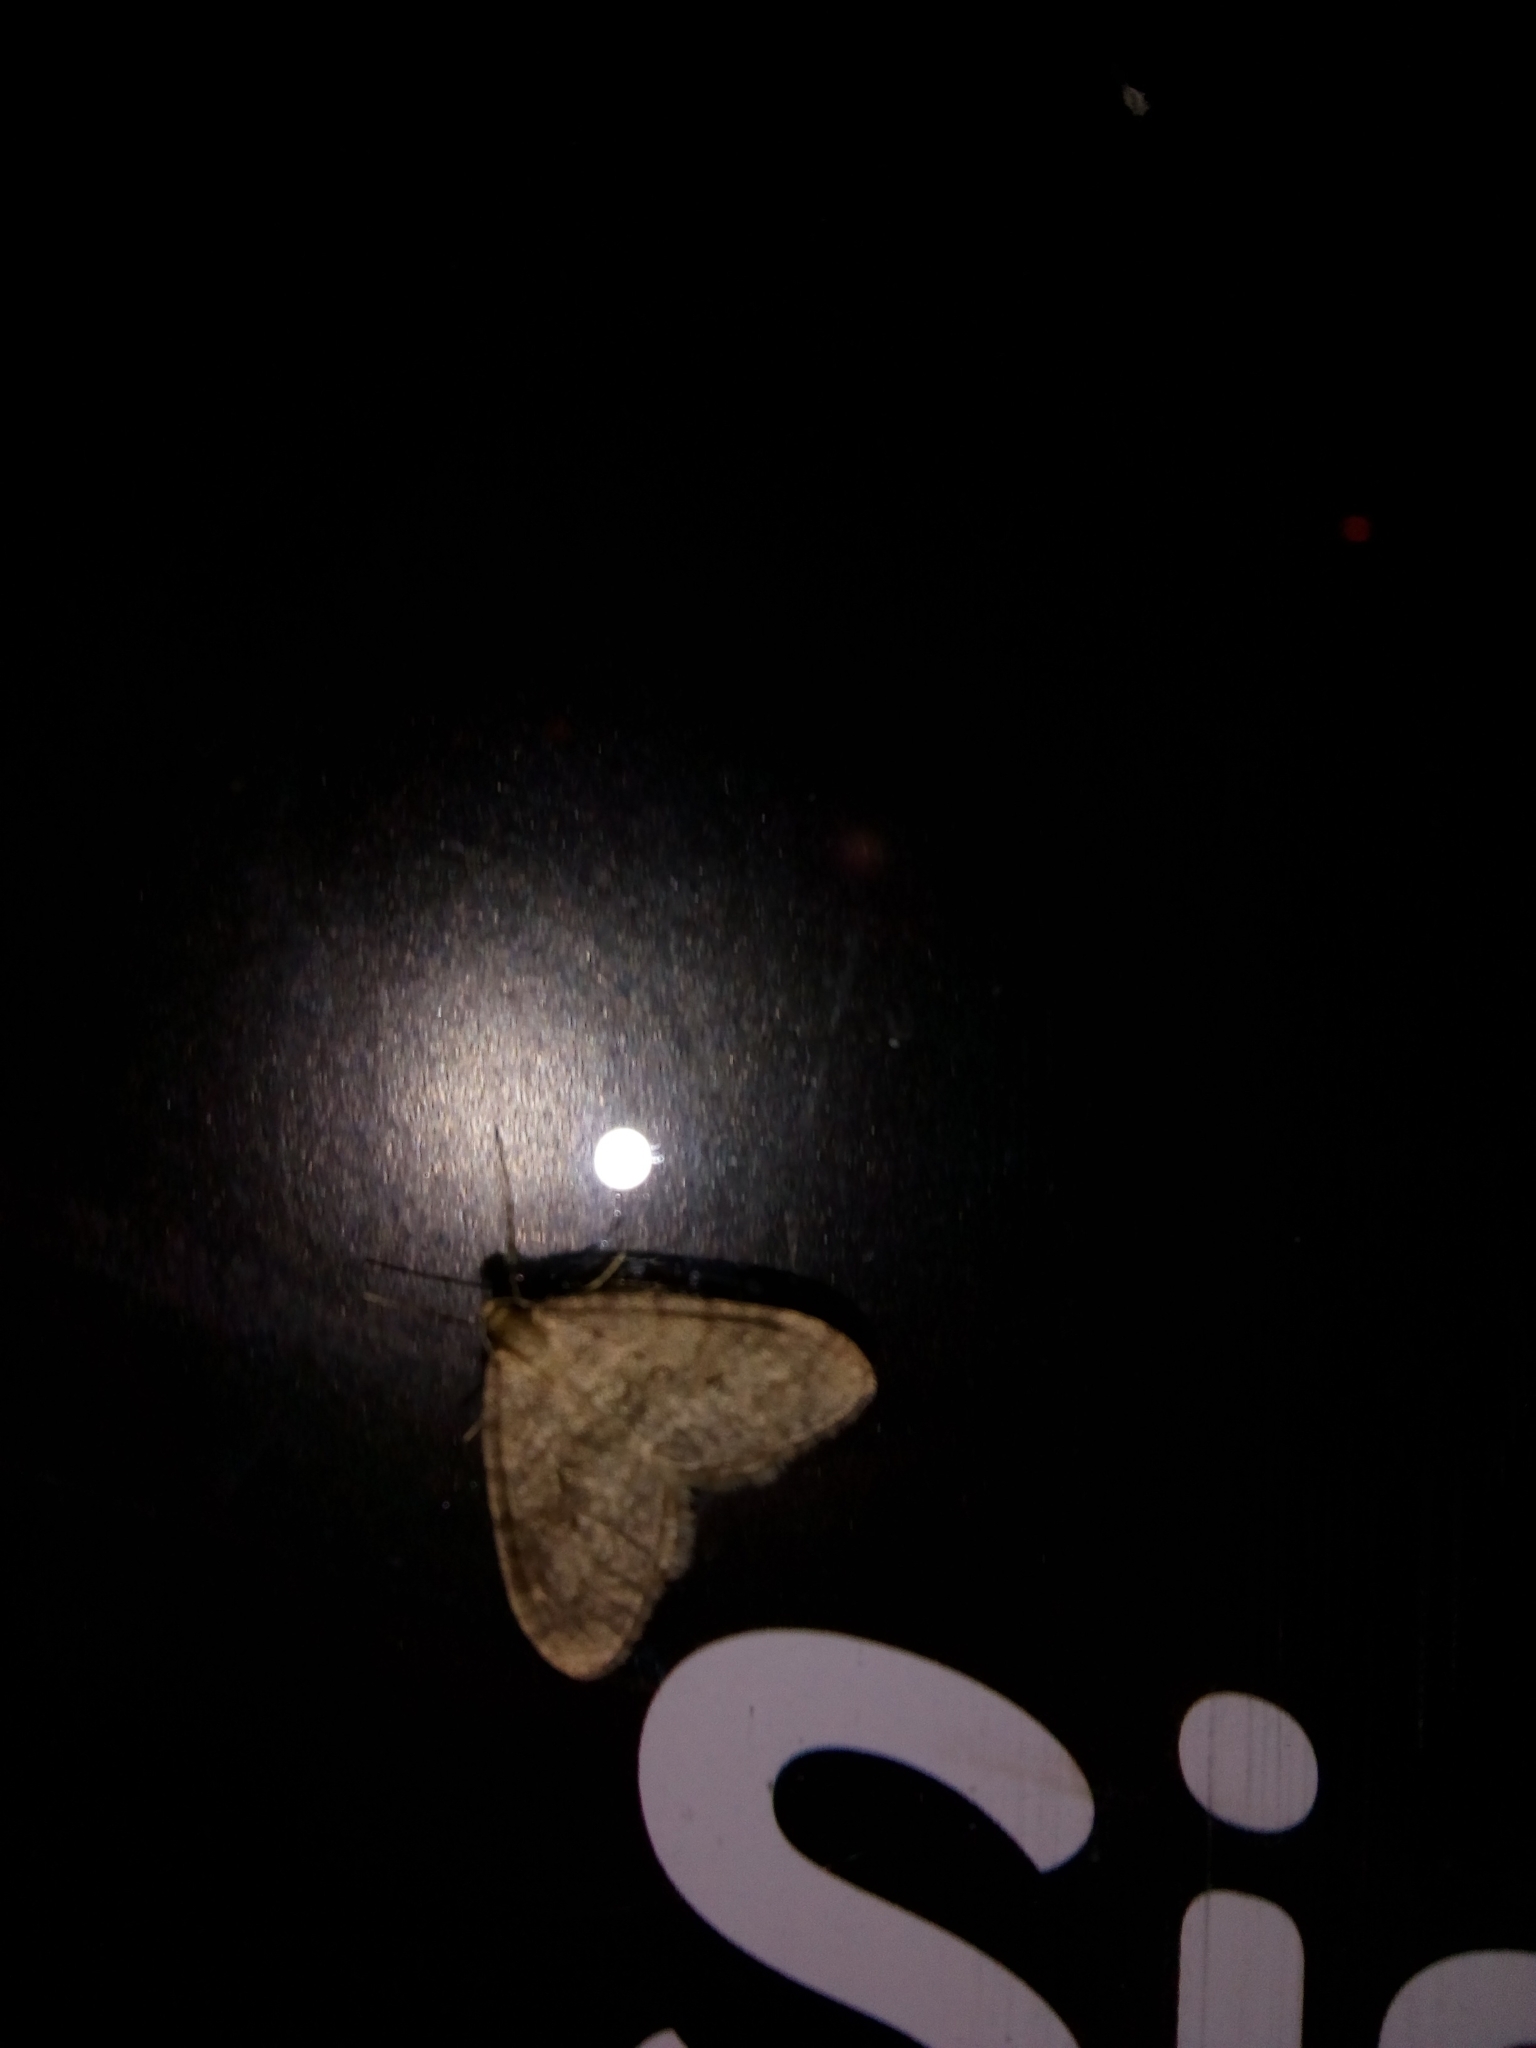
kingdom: Animalia
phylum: Arthropoda
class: Insecta
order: Lepidoptera
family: Geometridae
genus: Operophtera
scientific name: Operophtera brumata
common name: Winter moth
